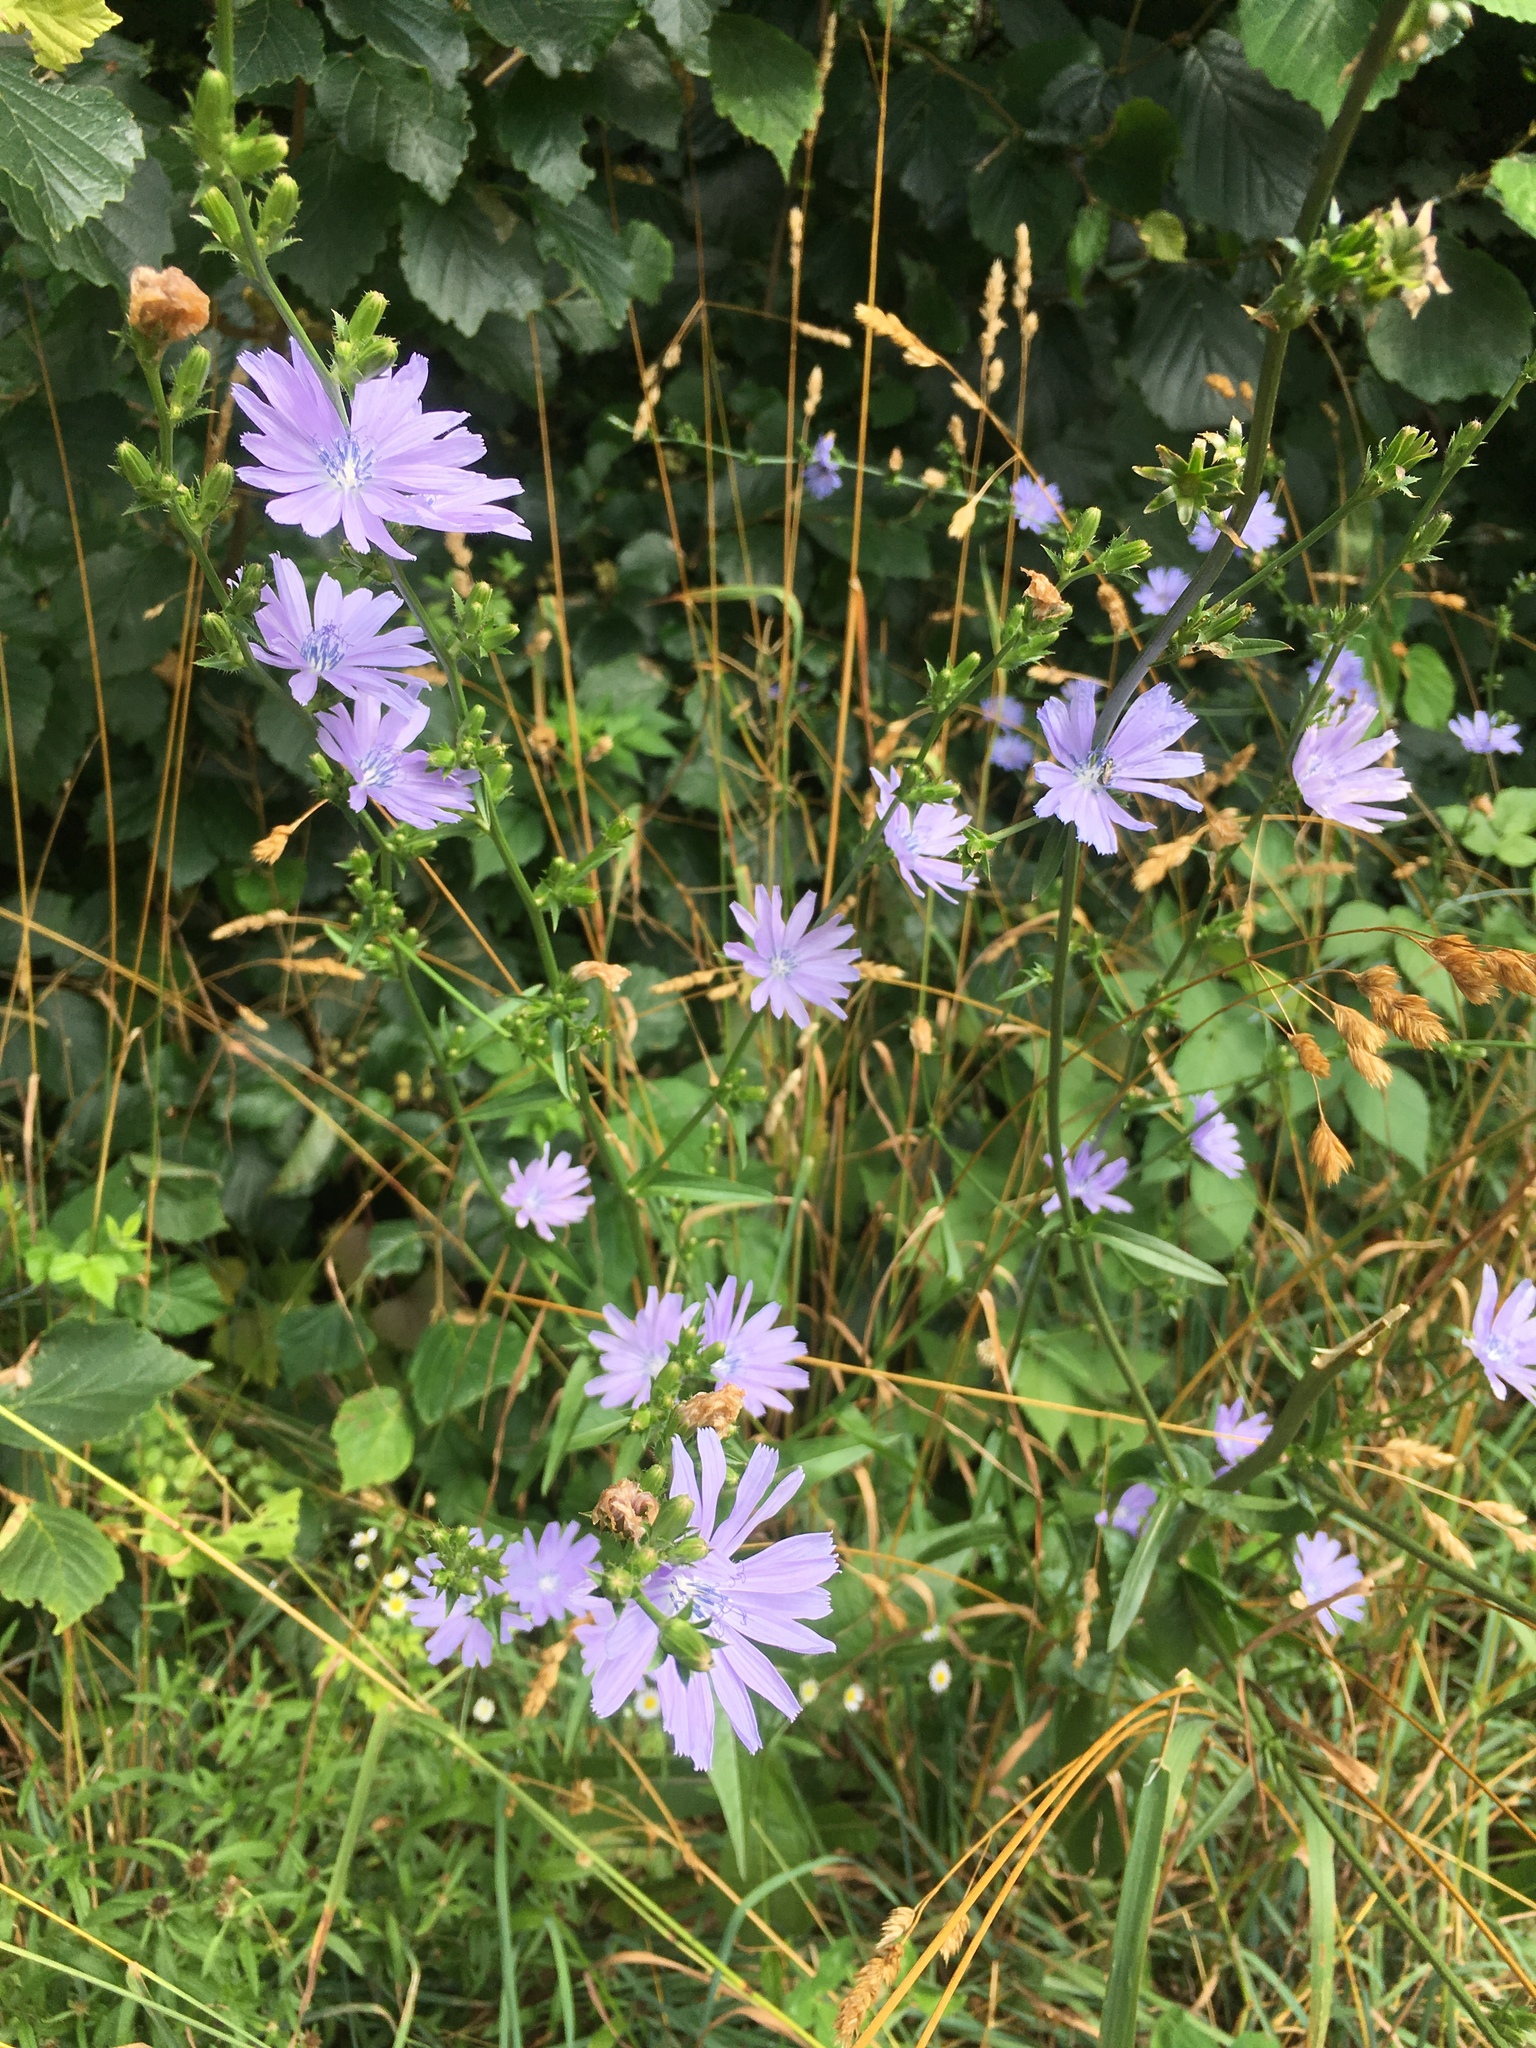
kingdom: Plantae
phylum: Tracheophyta
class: Magnoliopsida
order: Asterales
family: Asteraceae
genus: Cichorium
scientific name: Cichorium intybus
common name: Chicory
